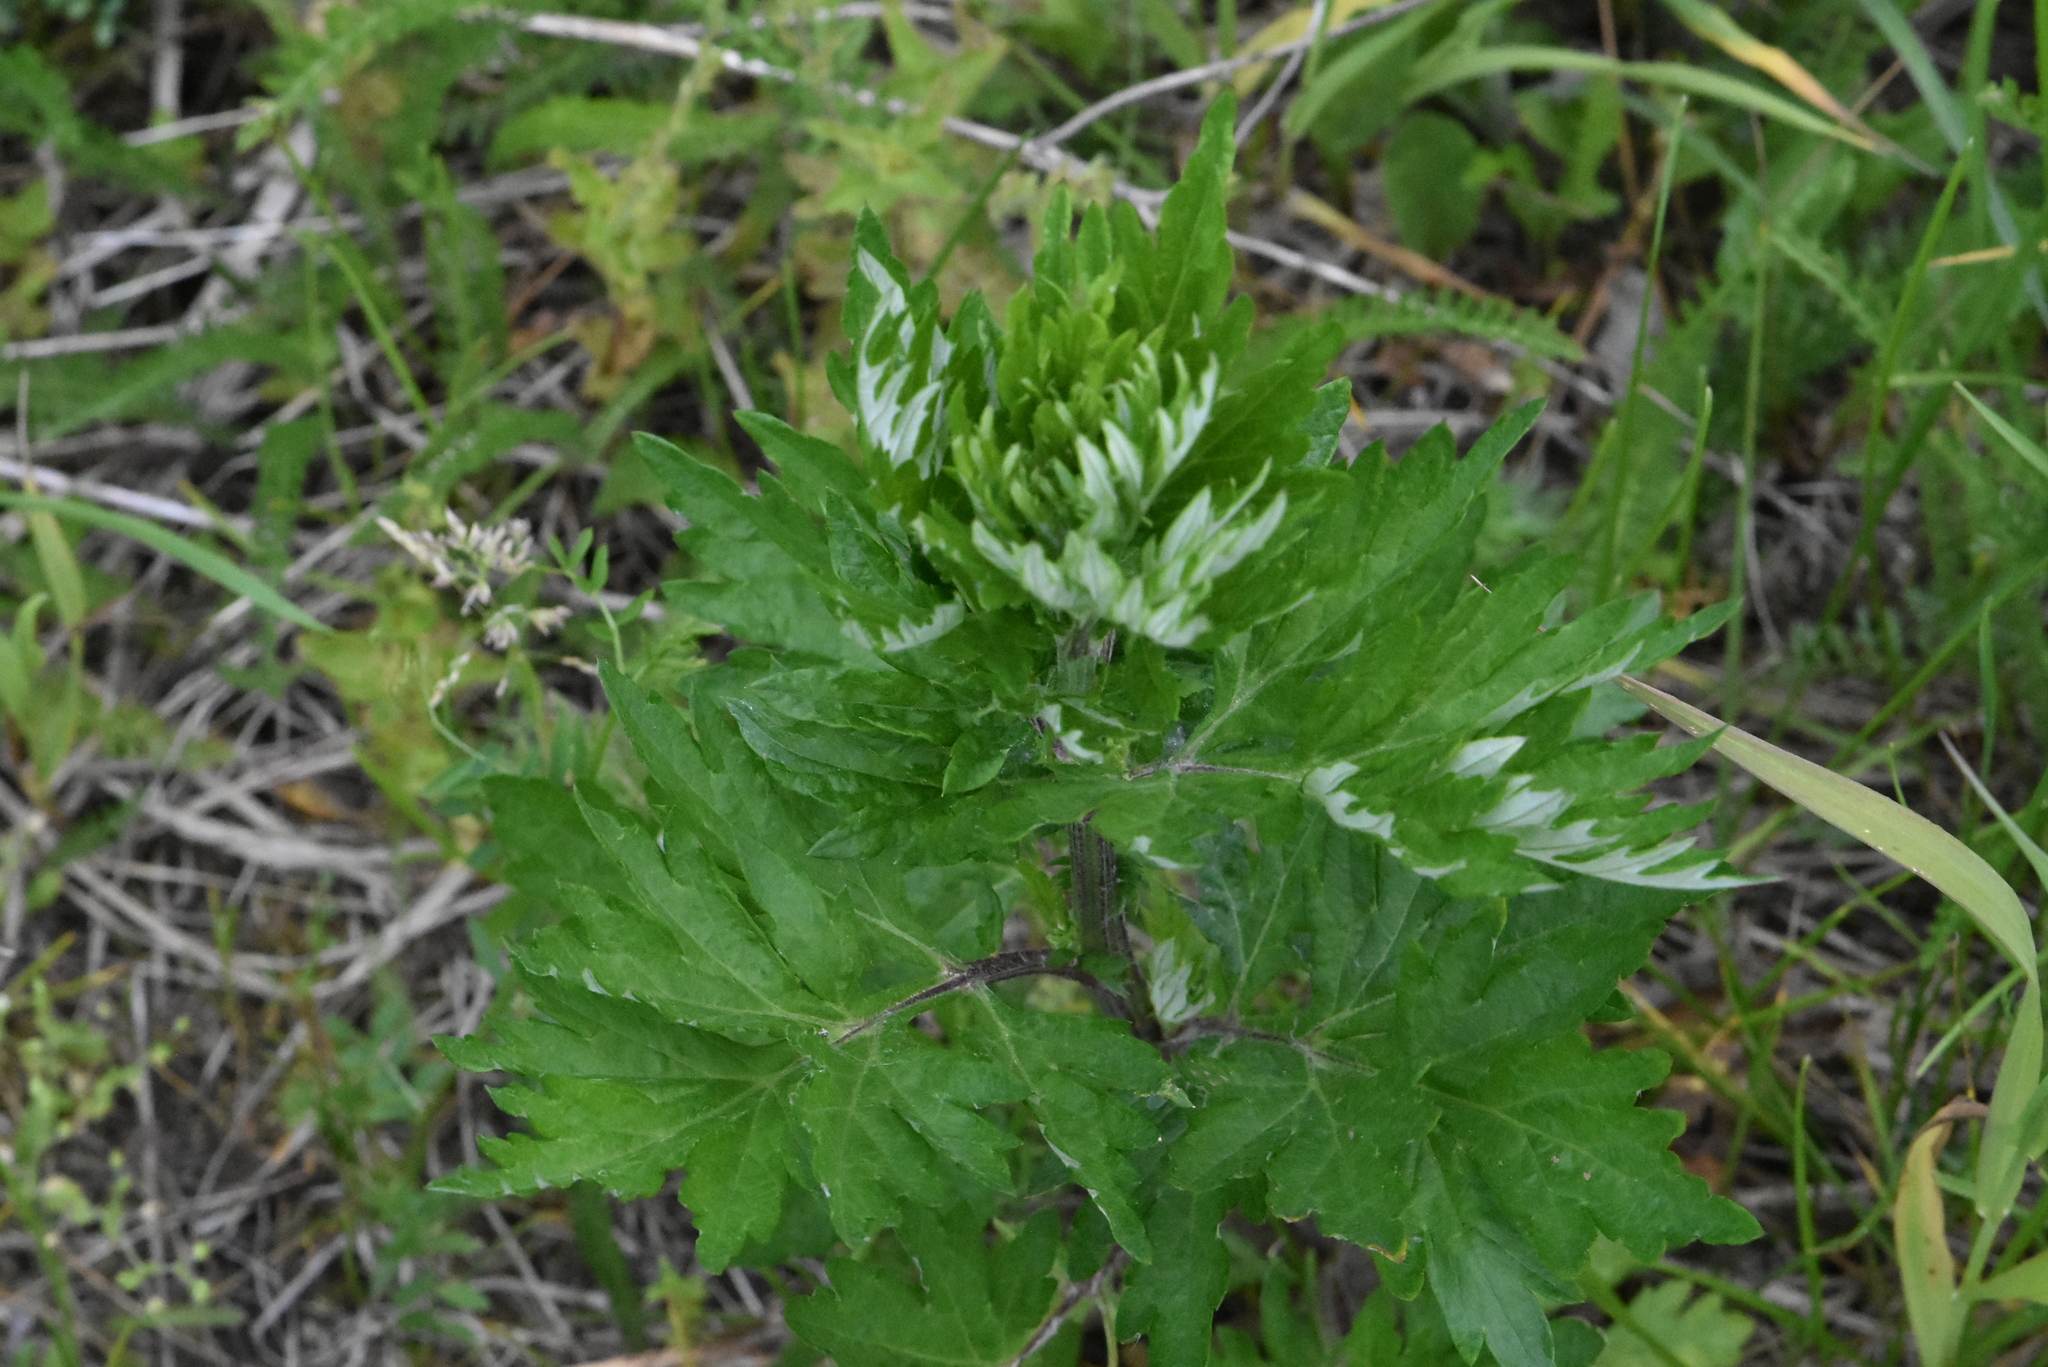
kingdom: Plantae
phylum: Tracheophyta
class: Magnoliopsida
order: Asterales
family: Asteraceae
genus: Artemisia
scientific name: Artemisia vulgaris
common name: Mugwort
